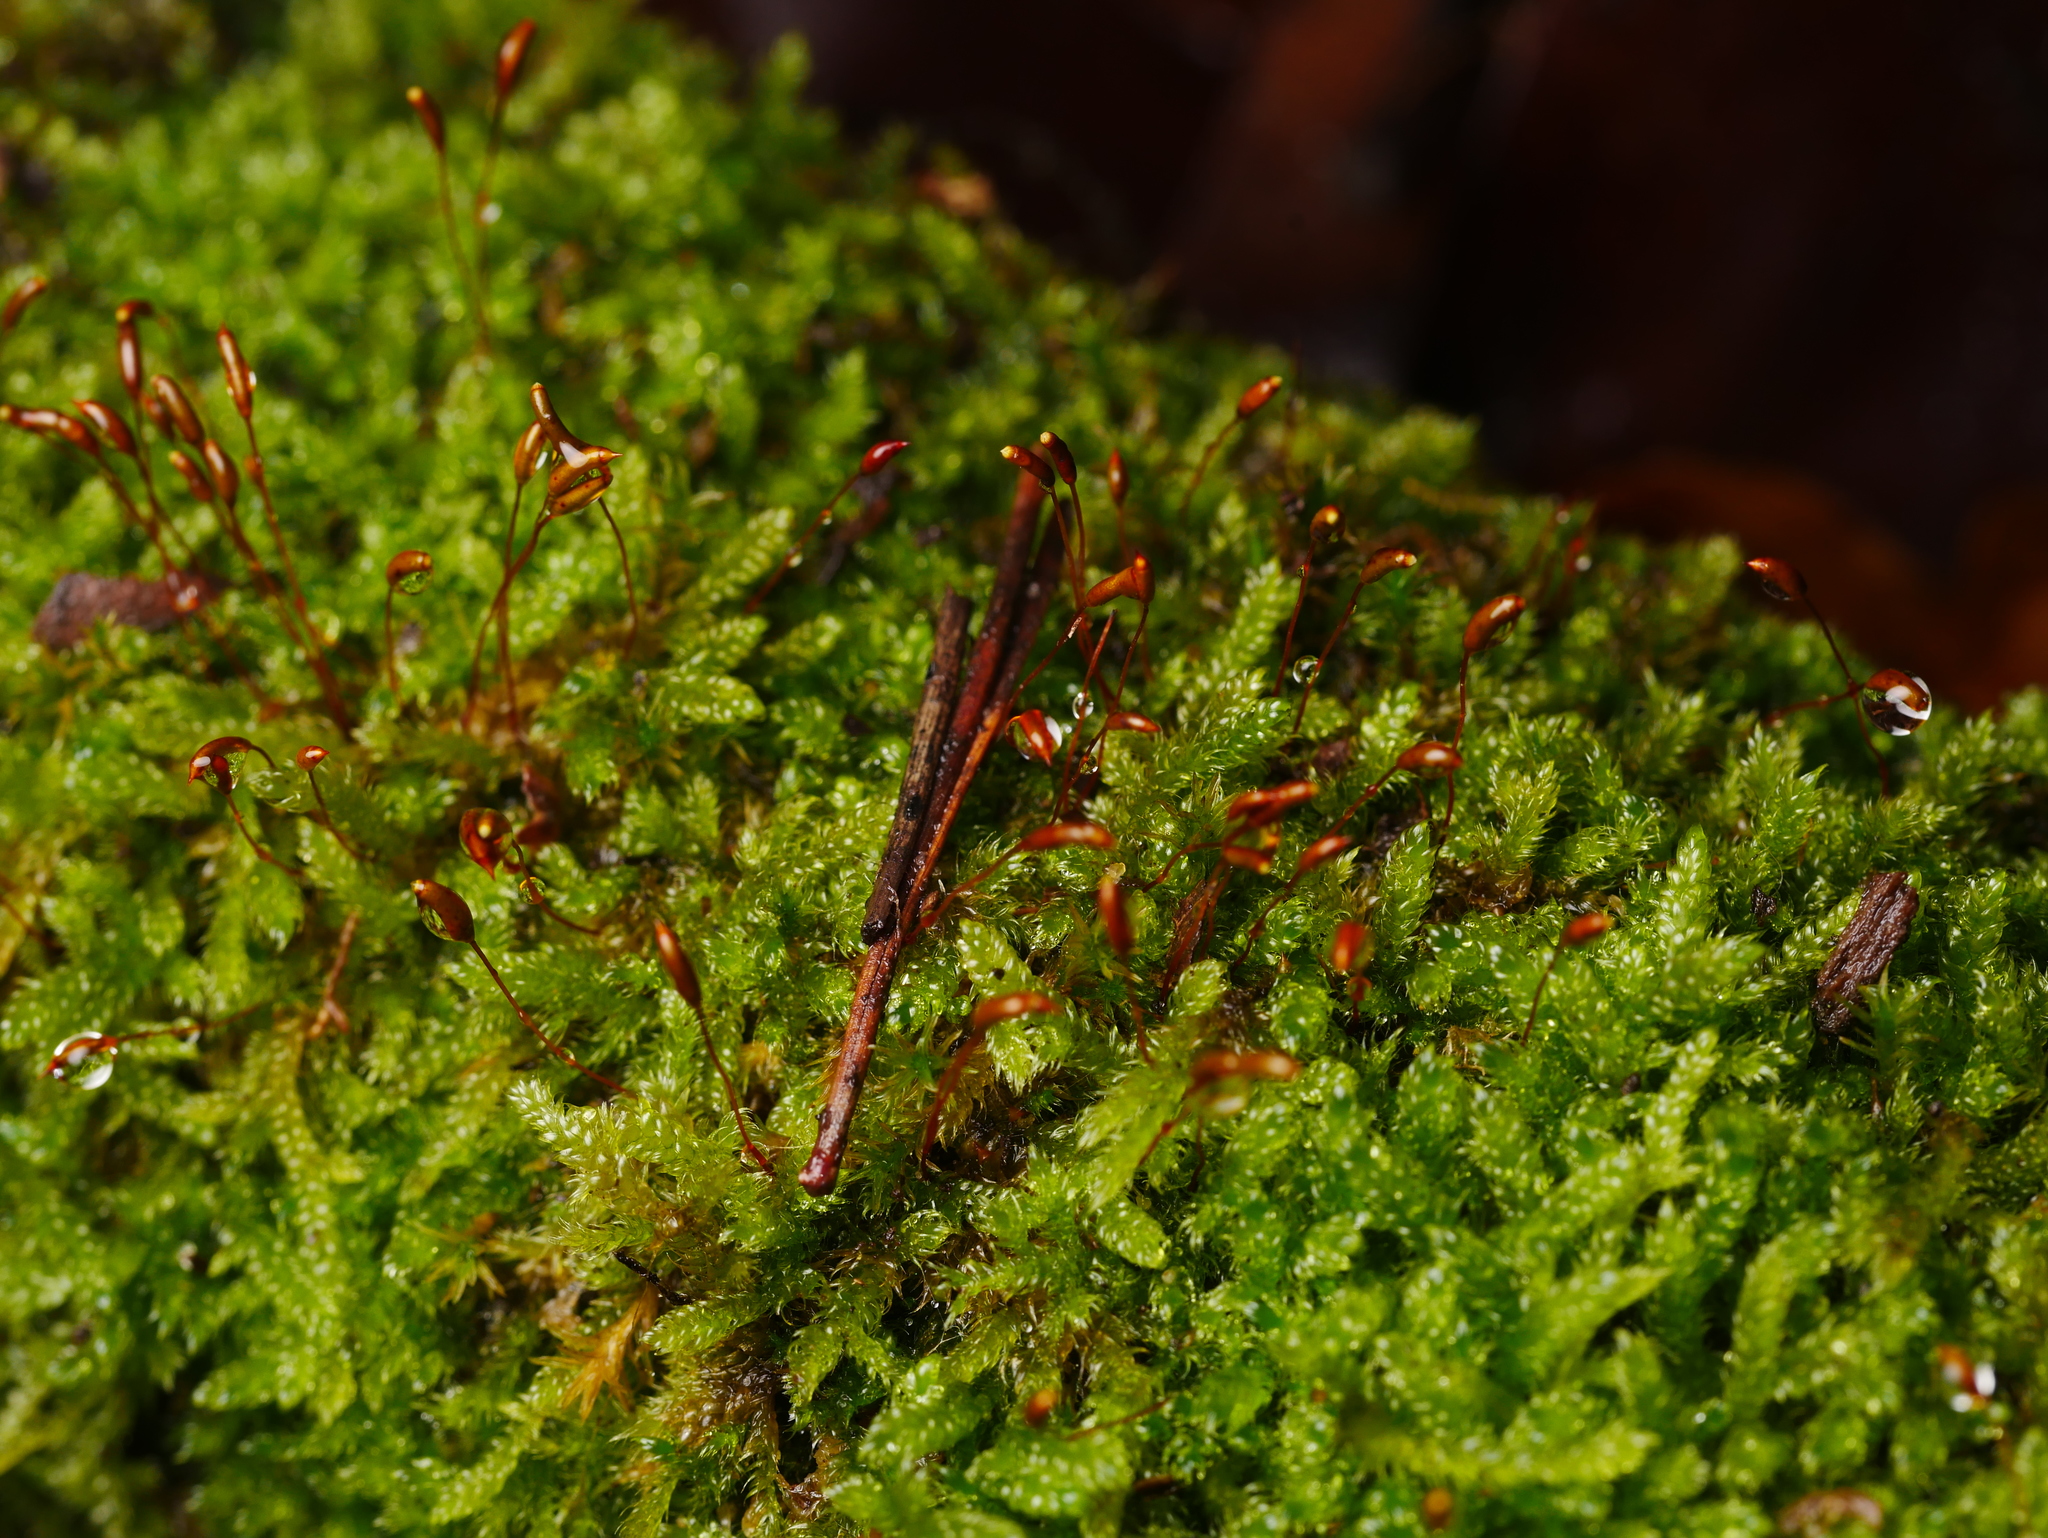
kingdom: Plantae
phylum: Bryophyta
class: Bryopsida
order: Hypnales
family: Hypnaceae
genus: Hypnum
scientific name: Hypnum cupressiforme
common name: Cypress-leaved plait-moss
